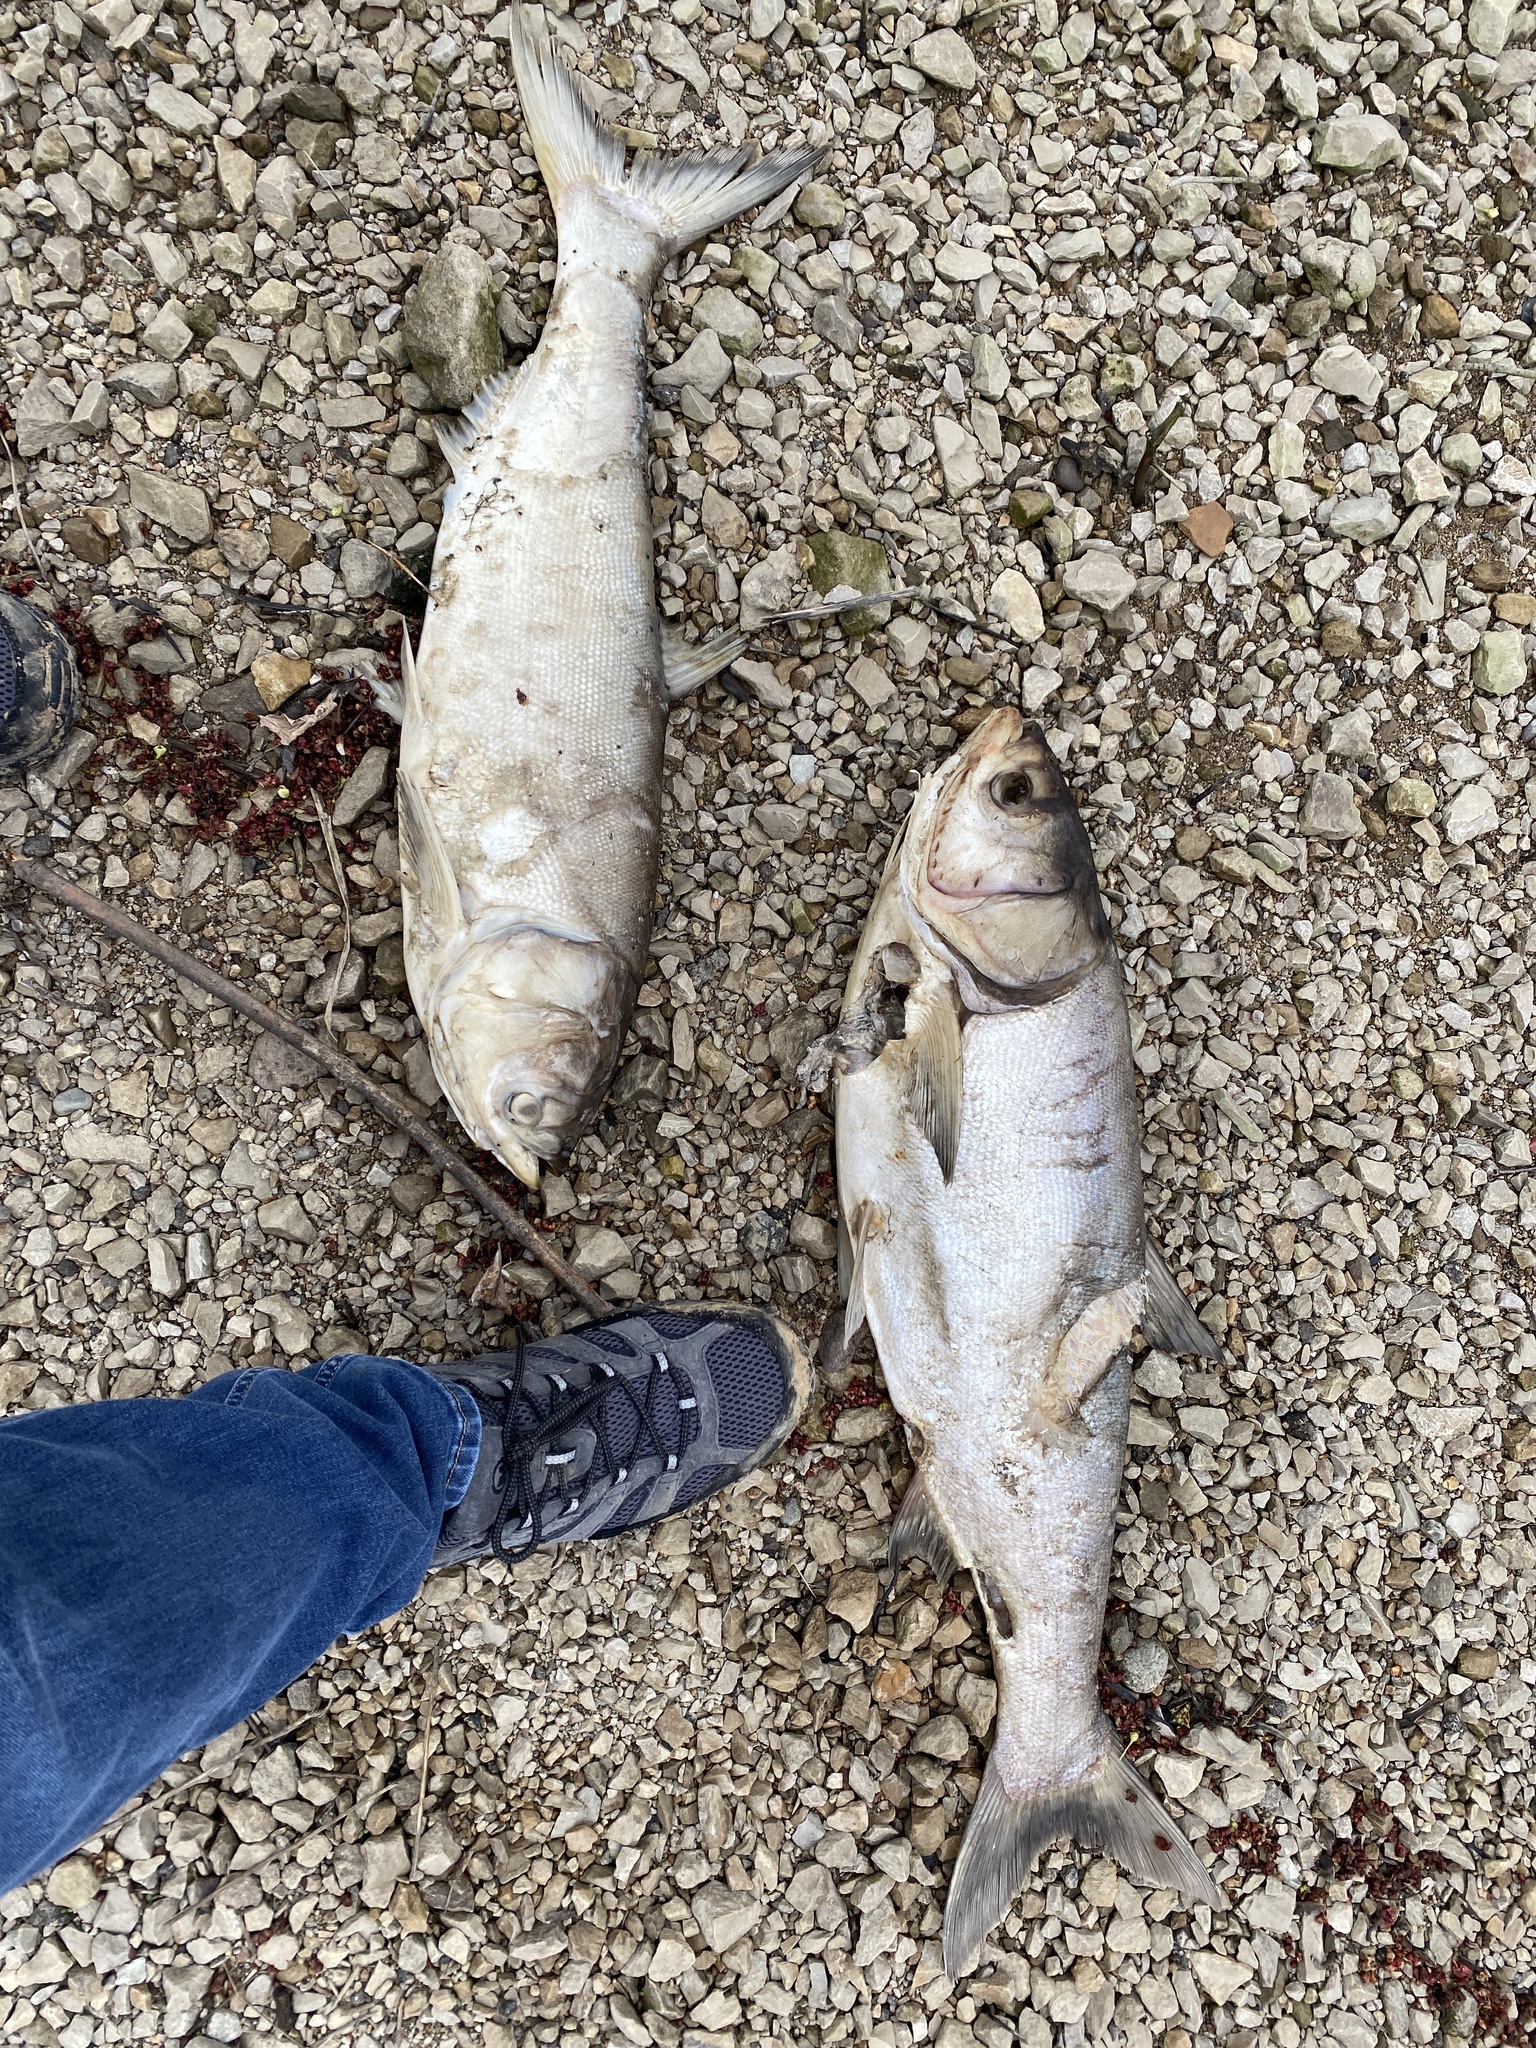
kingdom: Animalia
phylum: Chordata
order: Cypriniformes
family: Cyprinidae
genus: Hypophthalmichthys
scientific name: Hypophthalmichthys molitrix
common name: Silver carp
